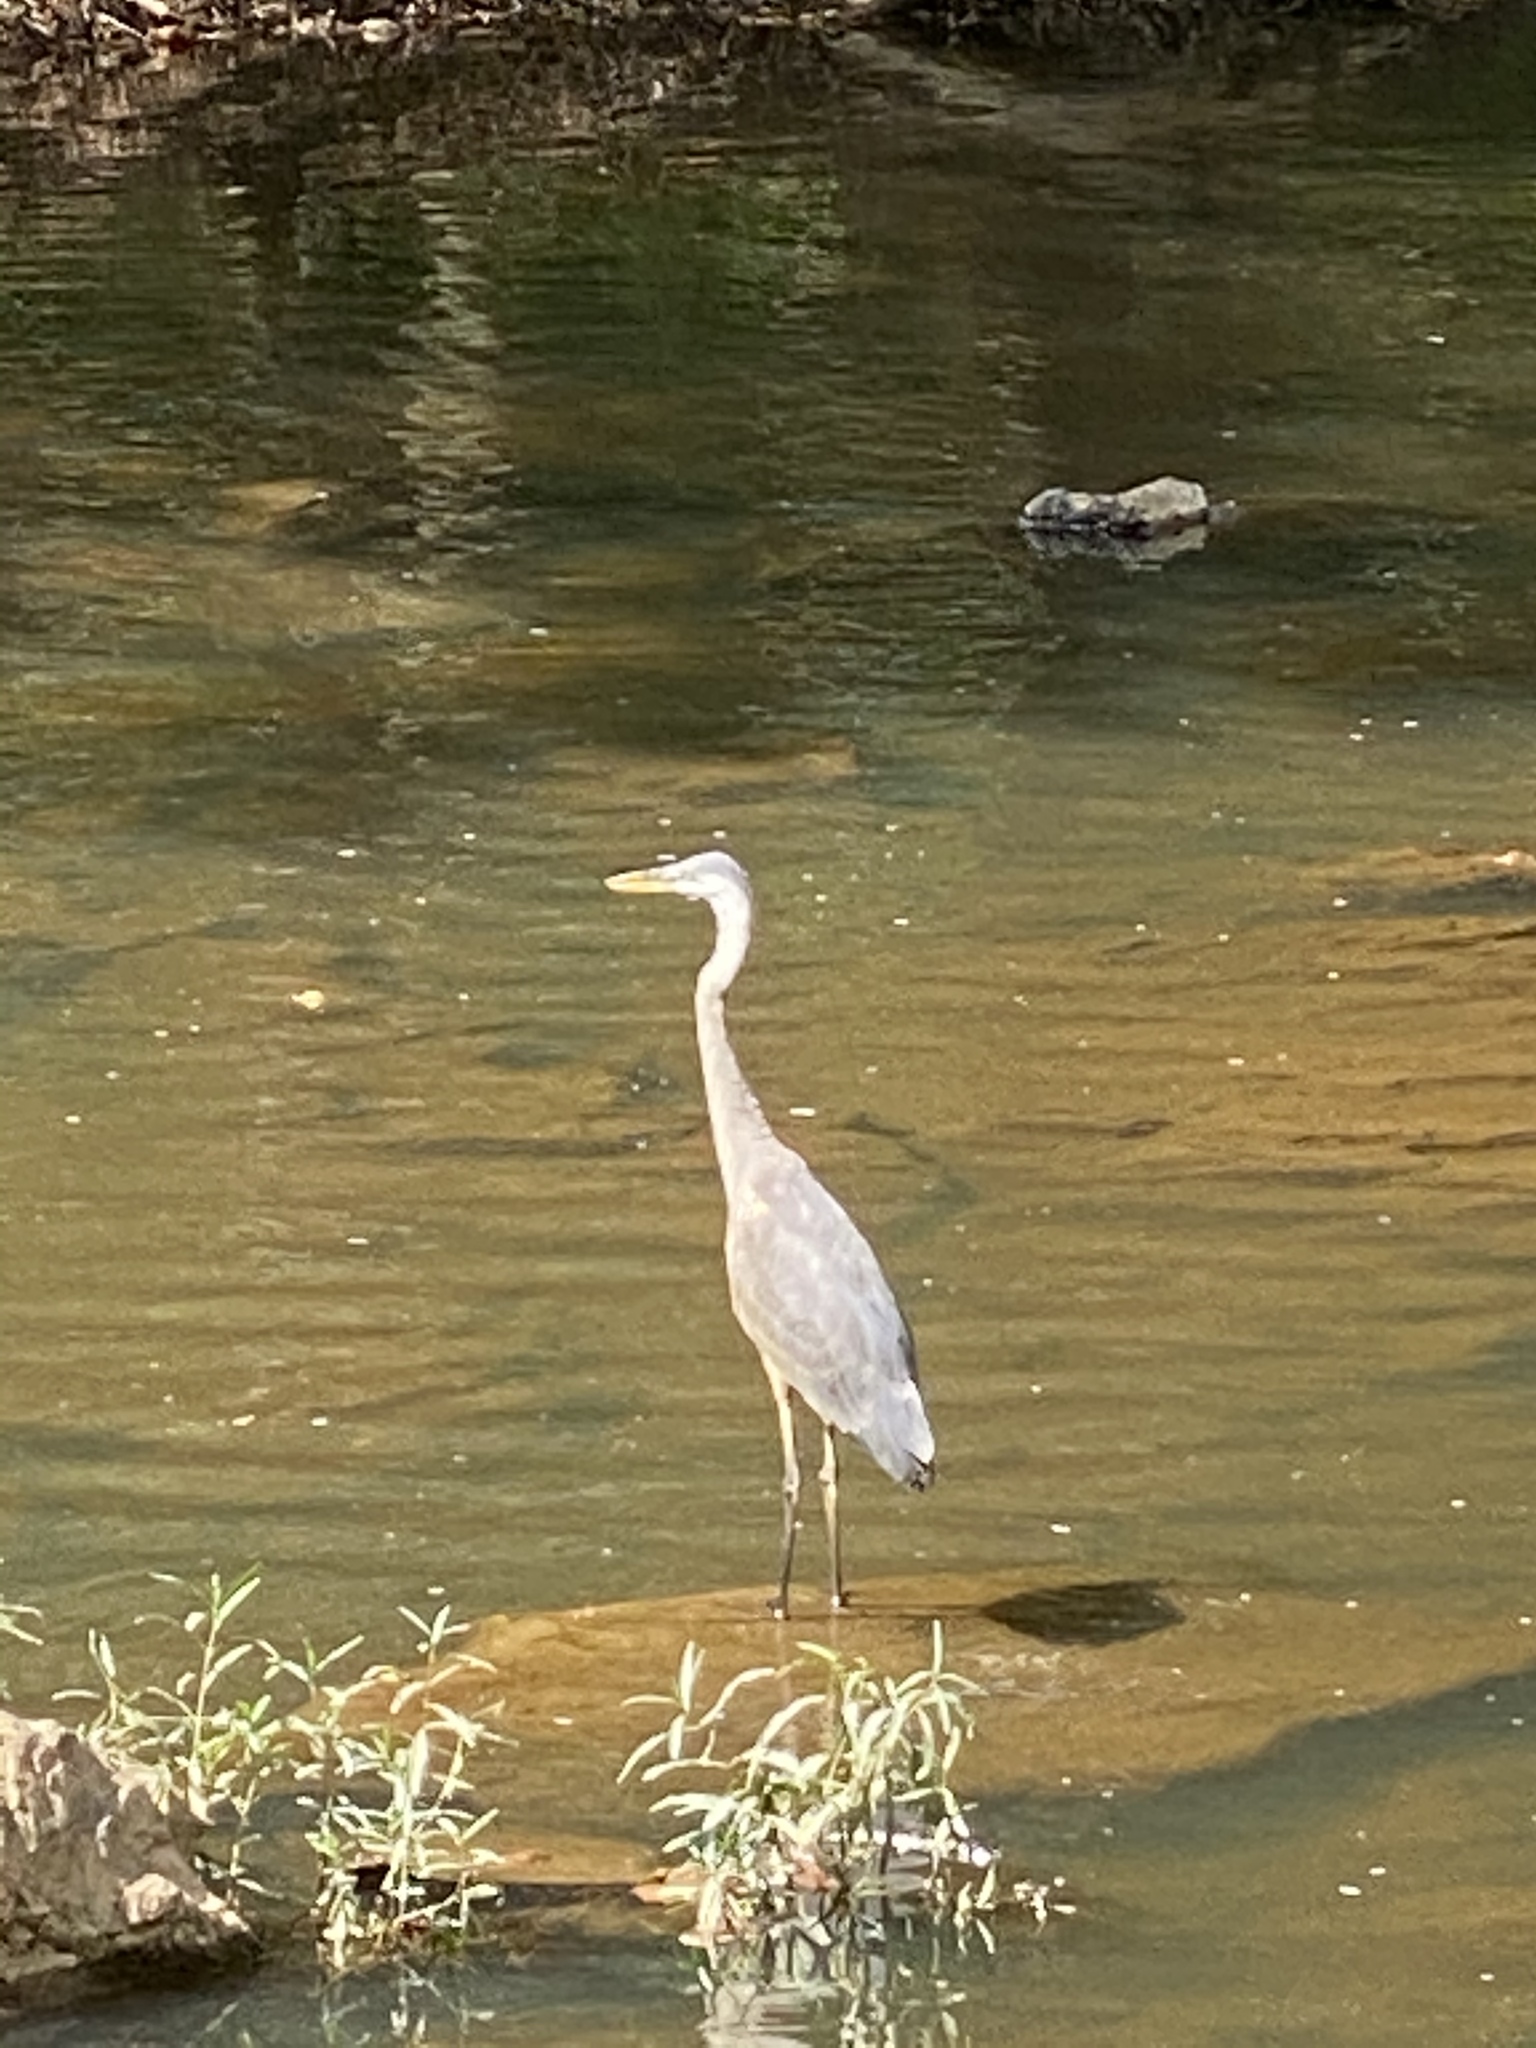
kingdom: Animalia
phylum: Chordata
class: Aves
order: Pelecaniformes
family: Ardeidae
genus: Ardea
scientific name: Ardea herodias
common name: Great blue heron
